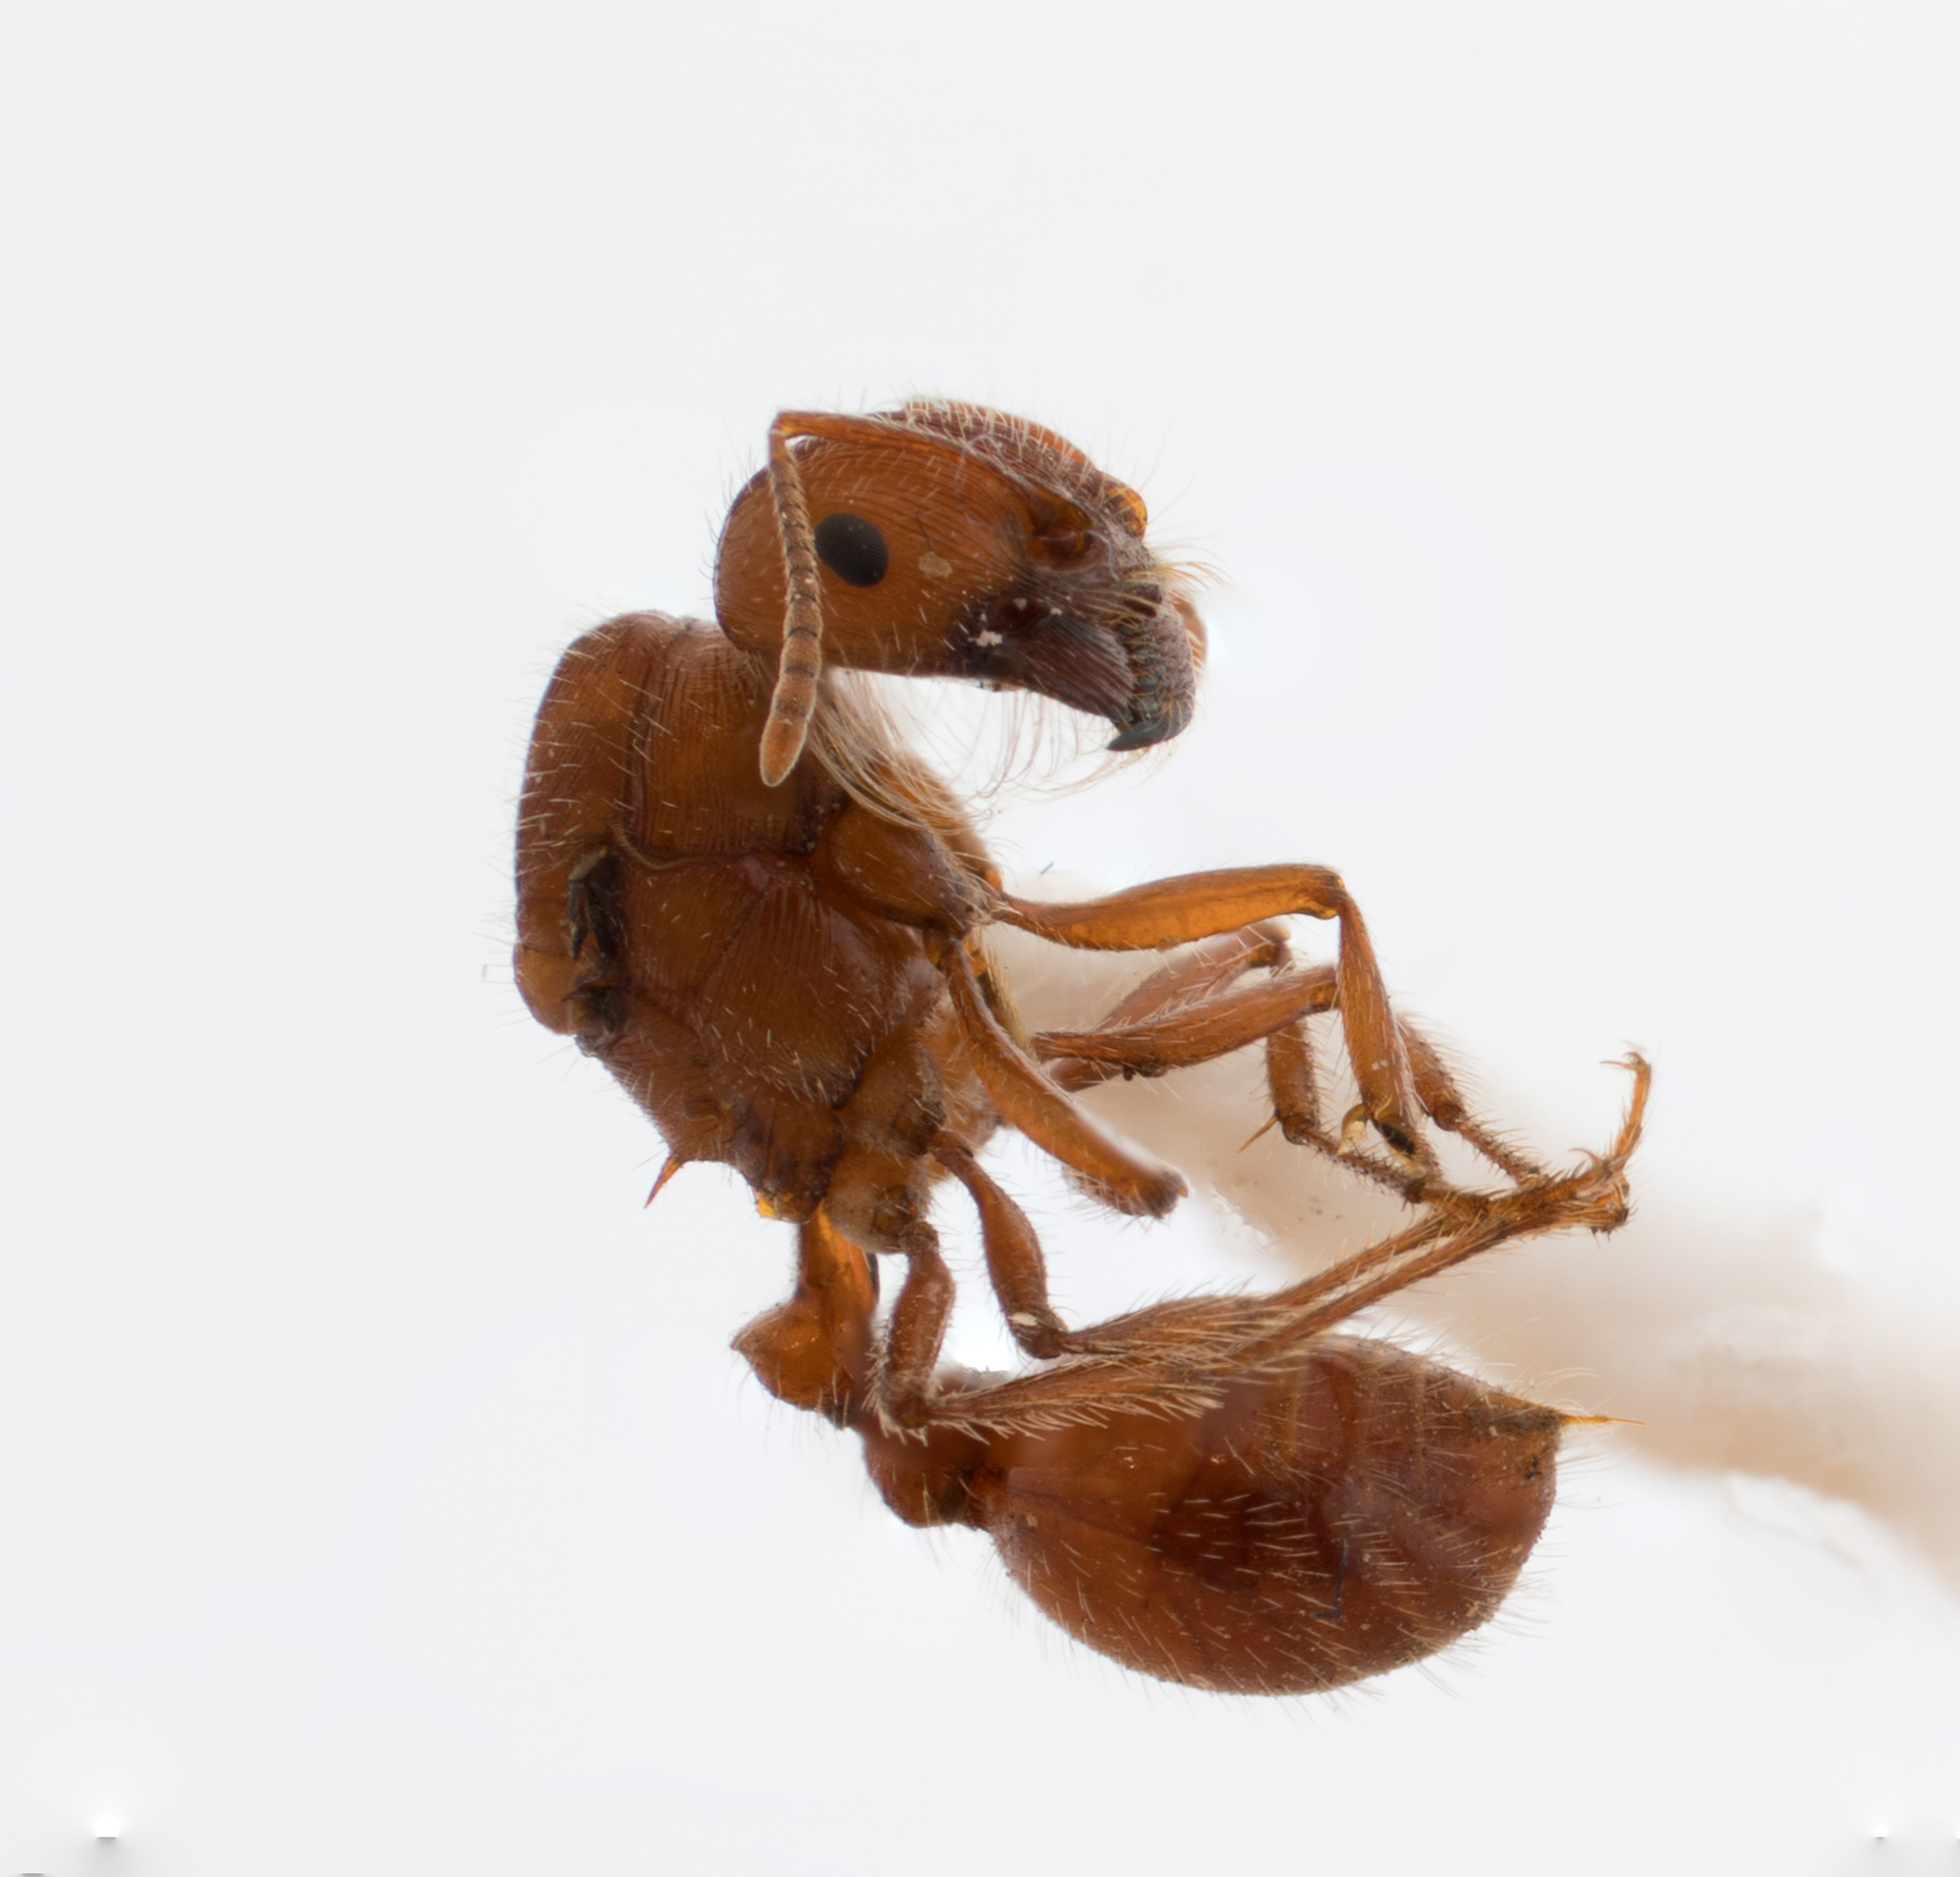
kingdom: Animalia
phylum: Arthropoda
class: Insecta
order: Hymenoptera
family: Formicidae
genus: Pogonomyrmex
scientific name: Pogonomyrmex subnitidus
